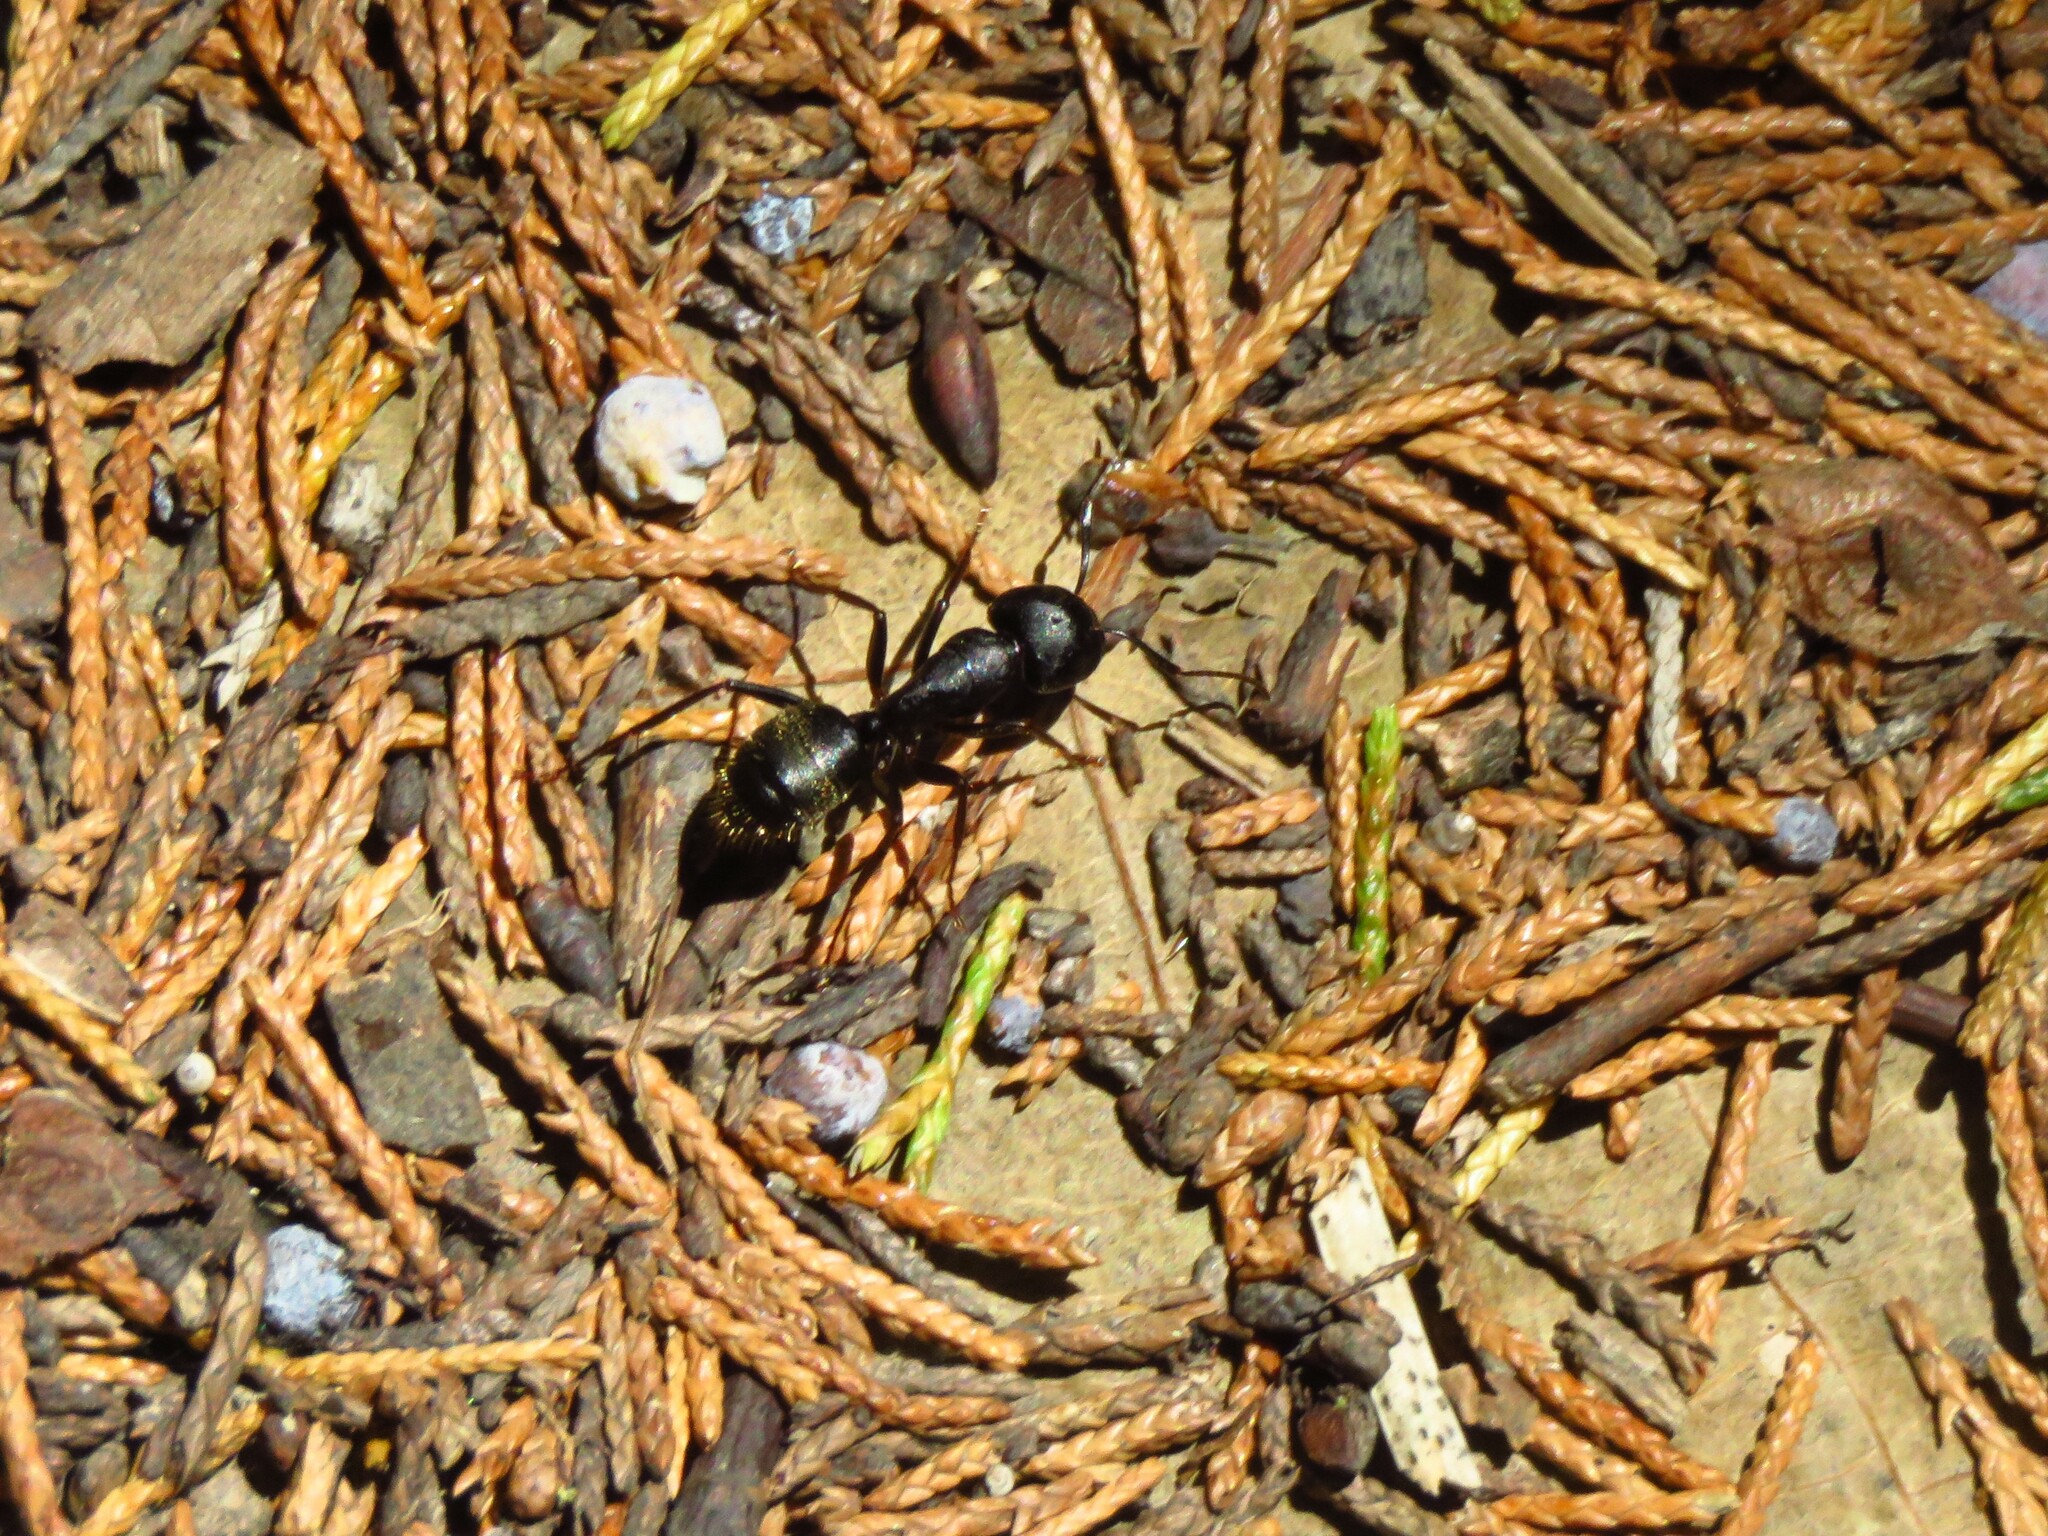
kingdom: Animalia
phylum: Arthropoda
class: Insecta
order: Hymenoptera
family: Formicidae
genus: Camponotus
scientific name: Camponotus pennsylvanicus
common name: Black carpenter ant
